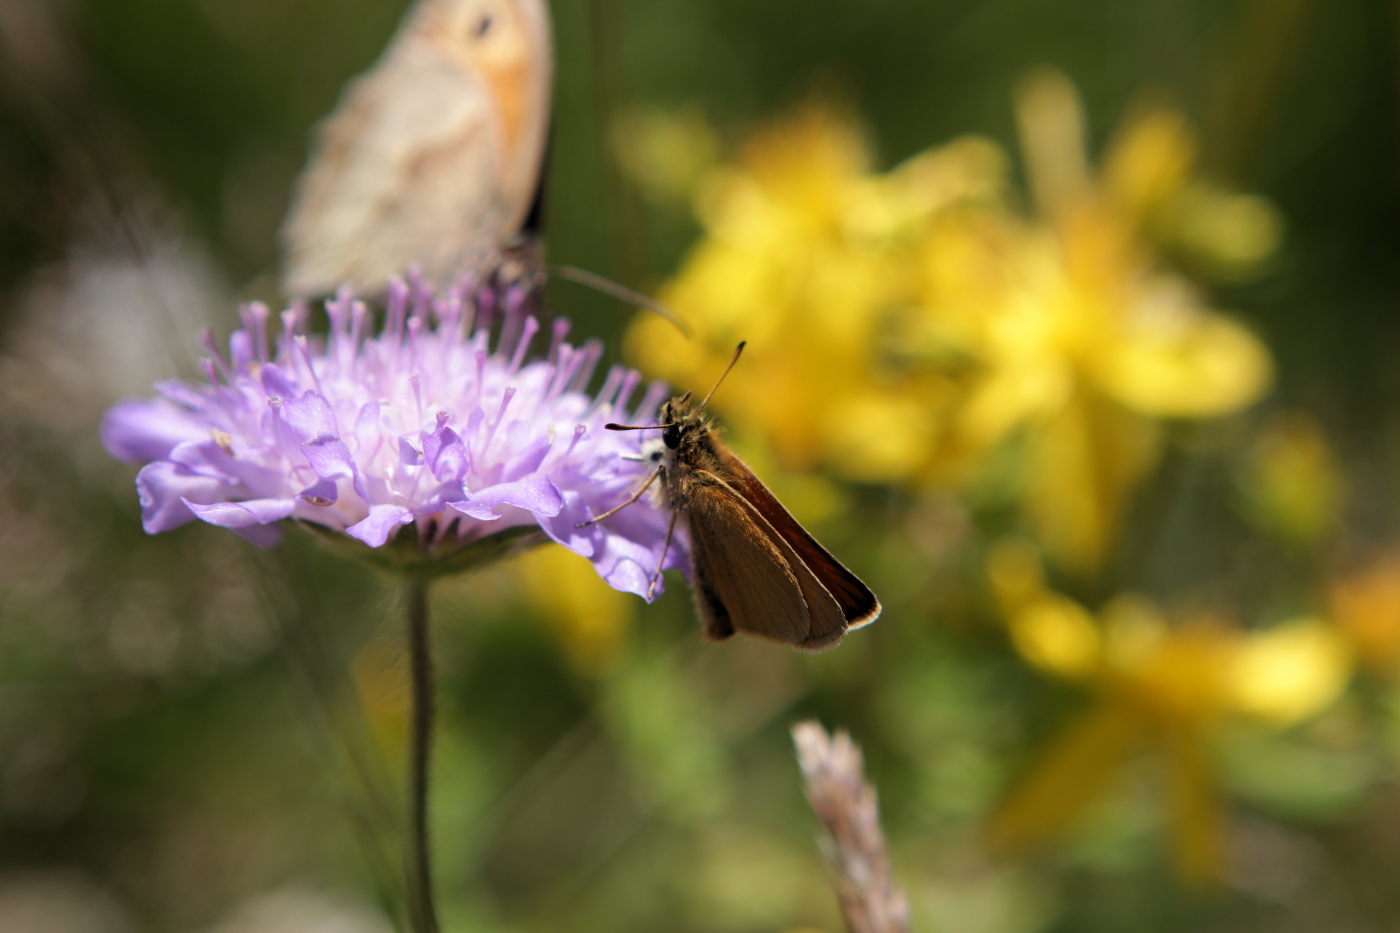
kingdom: Animalia
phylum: Arthropoda
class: Insecta
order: Lepidoptera
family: Hesperiidae
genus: Thymelicus
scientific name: Thymelicus lineola
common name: Essex skipper
